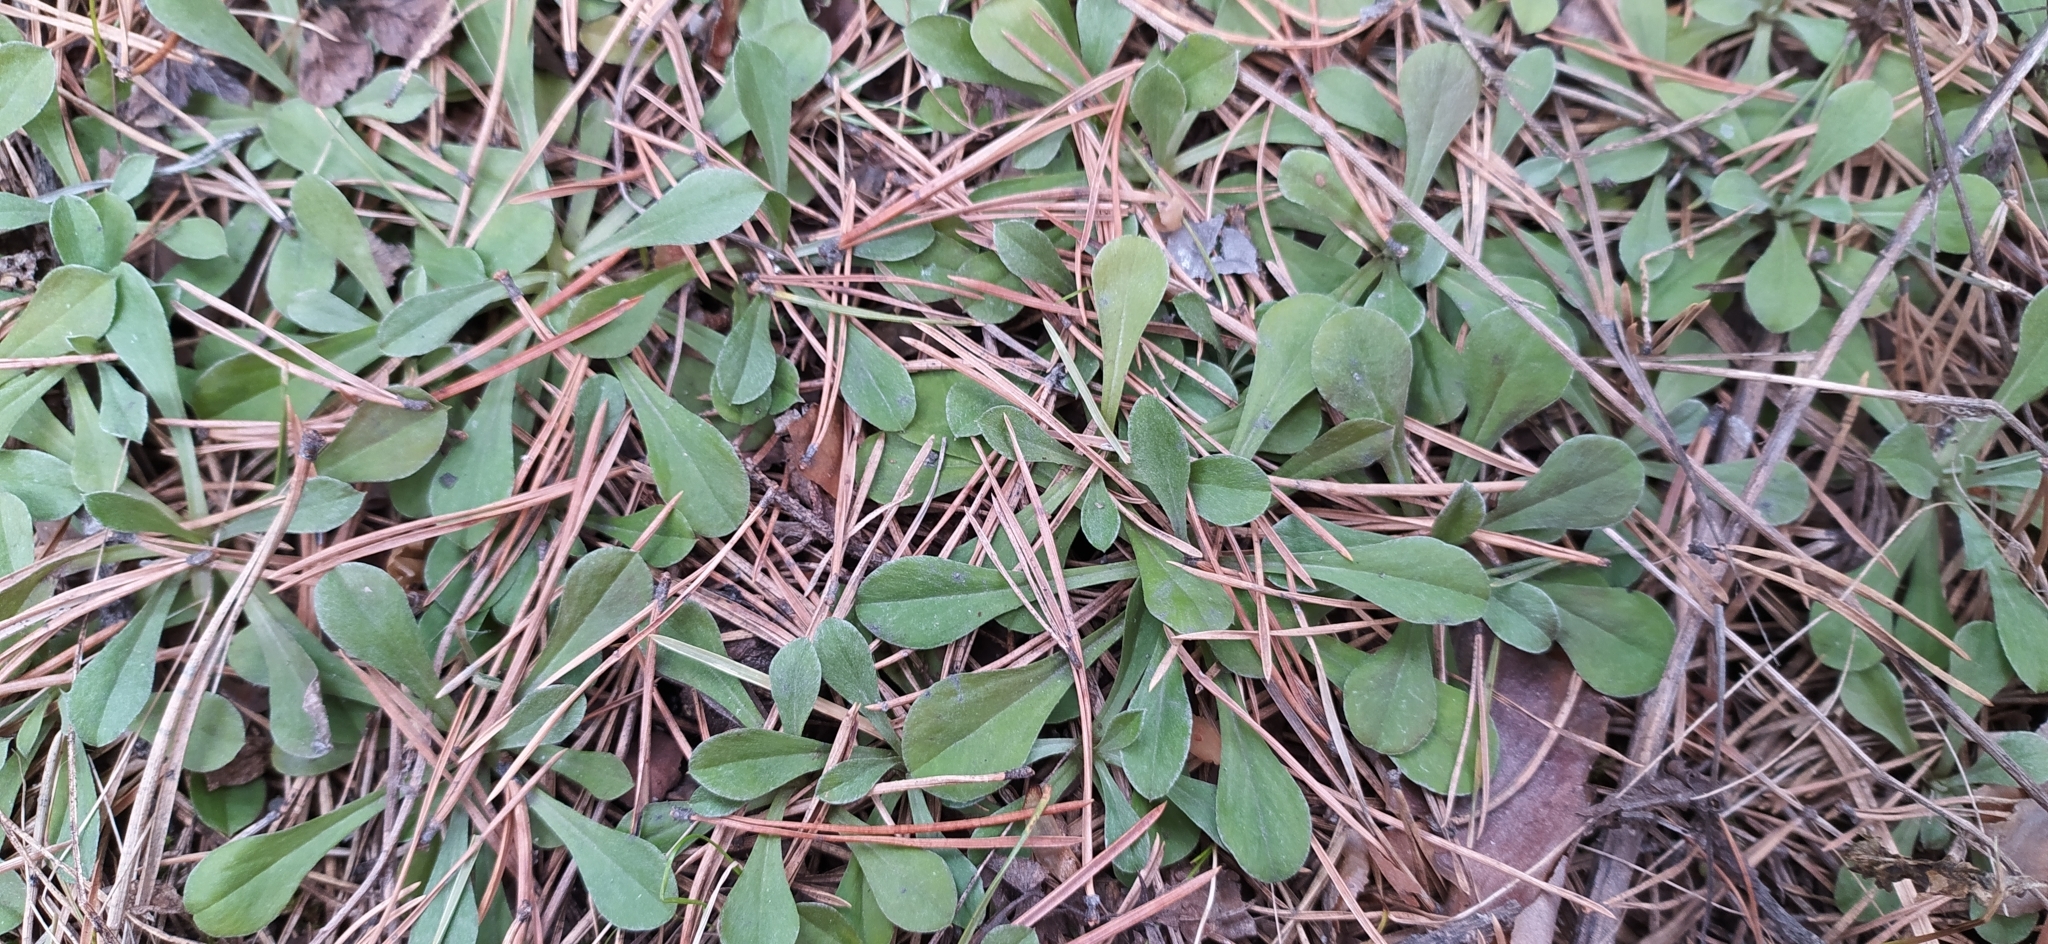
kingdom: Plantae
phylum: Tracheophyta
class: Magnoliopsida
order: Asterales
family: Asteraceae
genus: Antennaria
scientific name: Antennaria dioica
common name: Mountain everlasting
